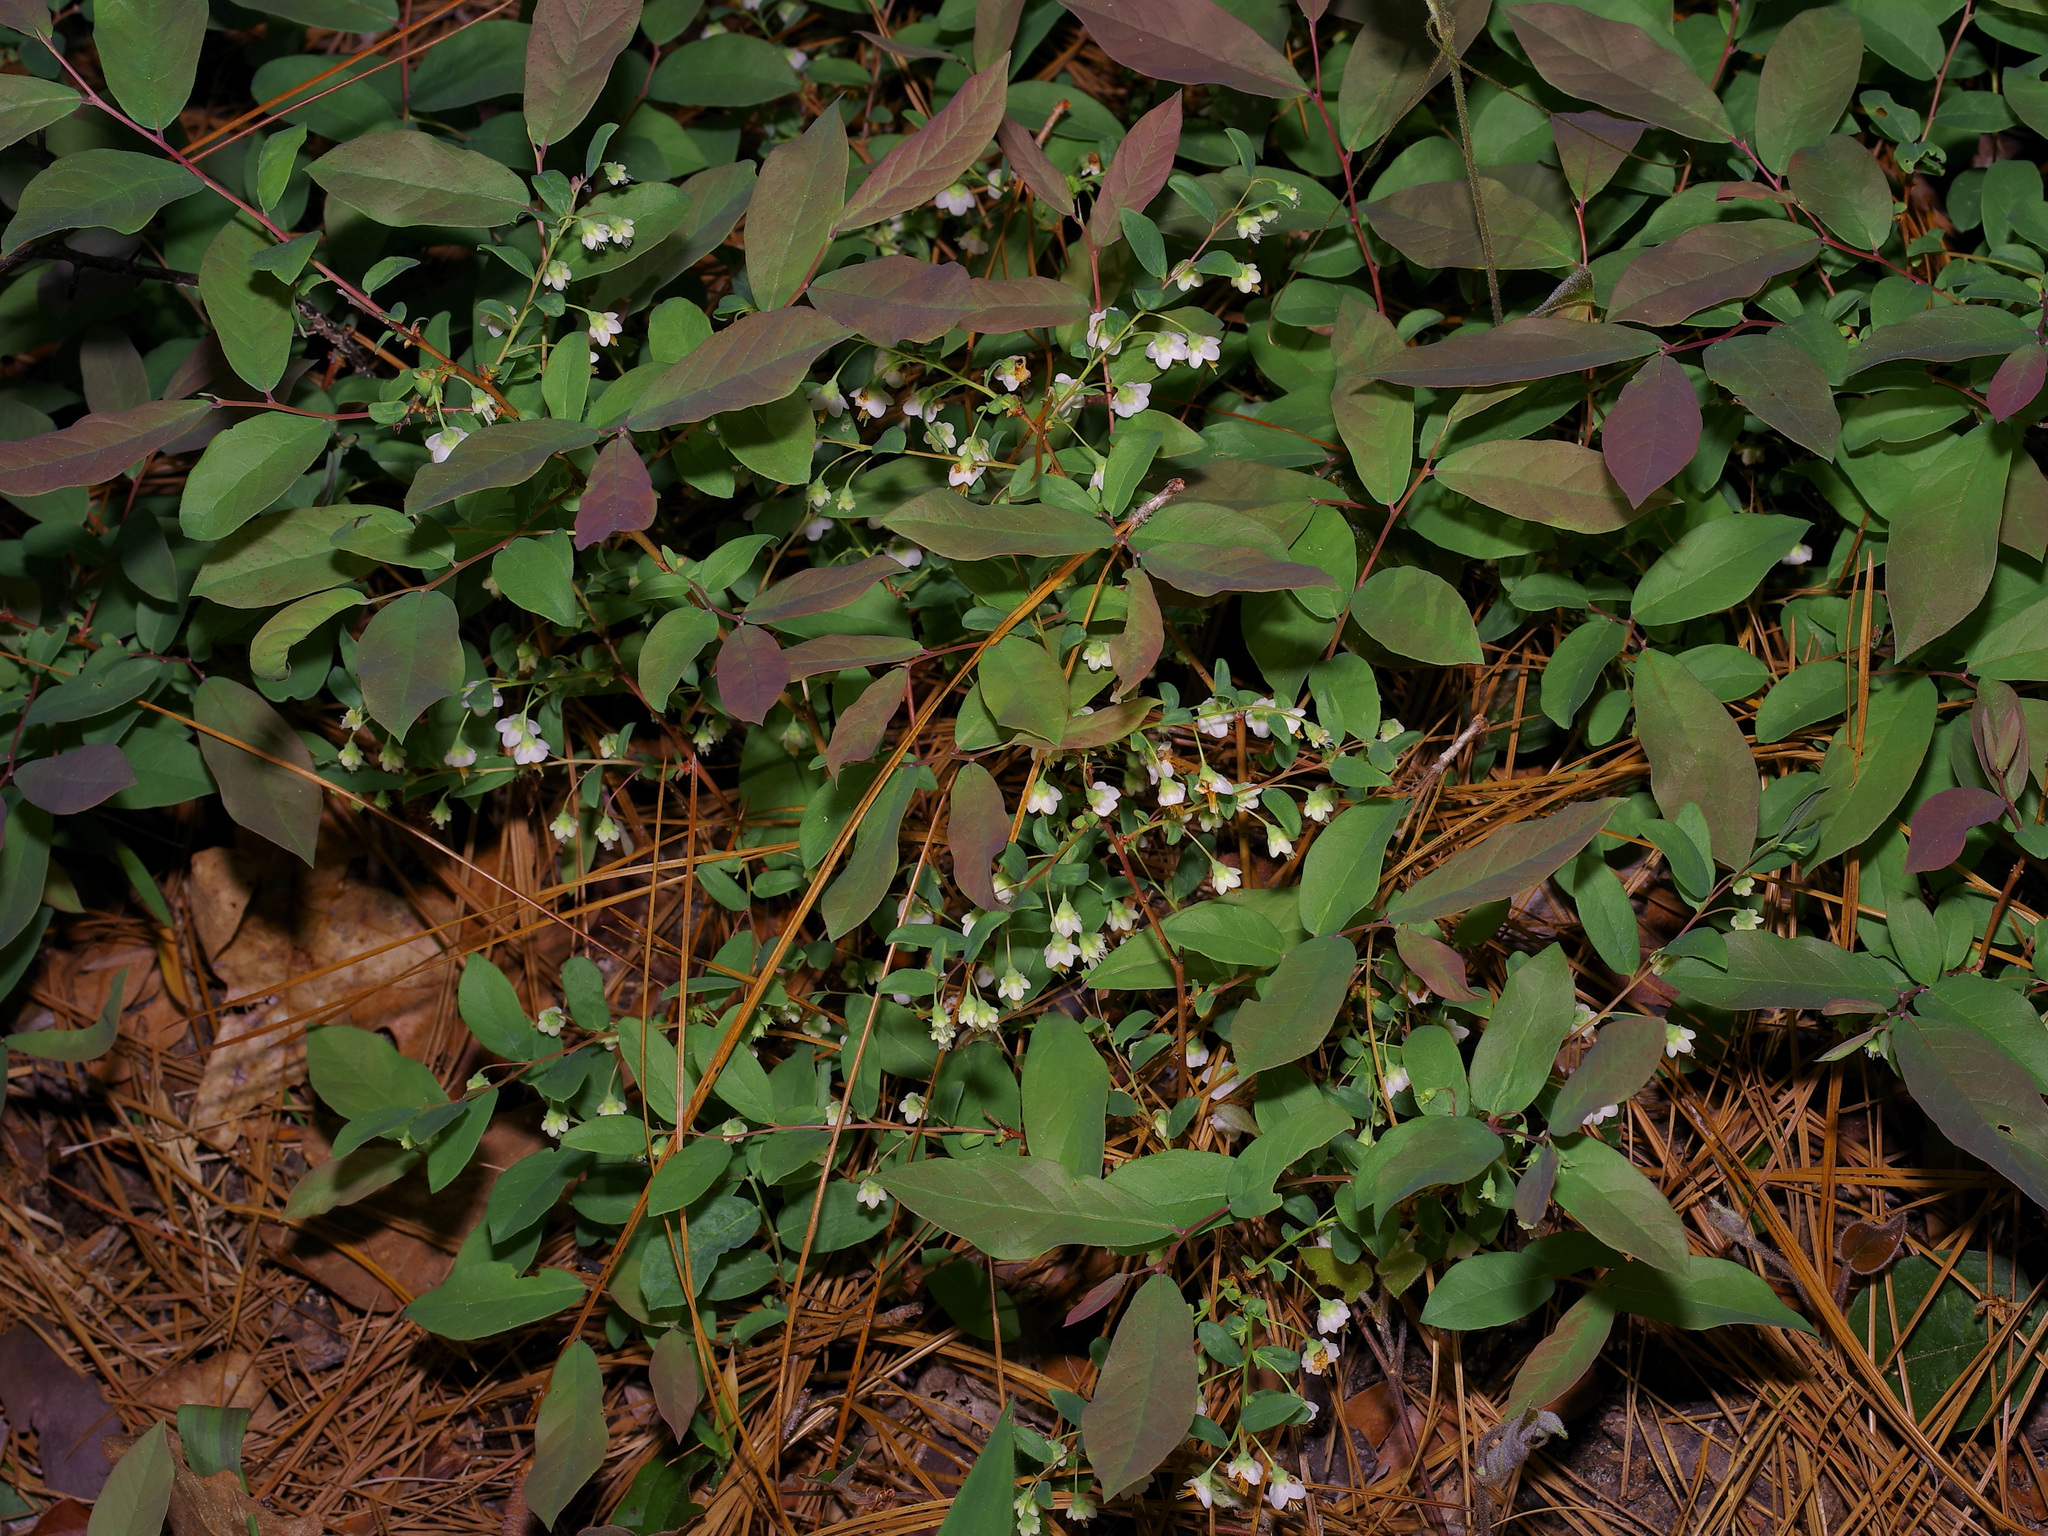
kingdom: Plantae
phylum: Tracheophyta
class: Magnoliopsida
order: Ericales
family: Ericaceae
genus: Vaccinium
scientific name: Vaccinium stamineum
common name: Deerberry
